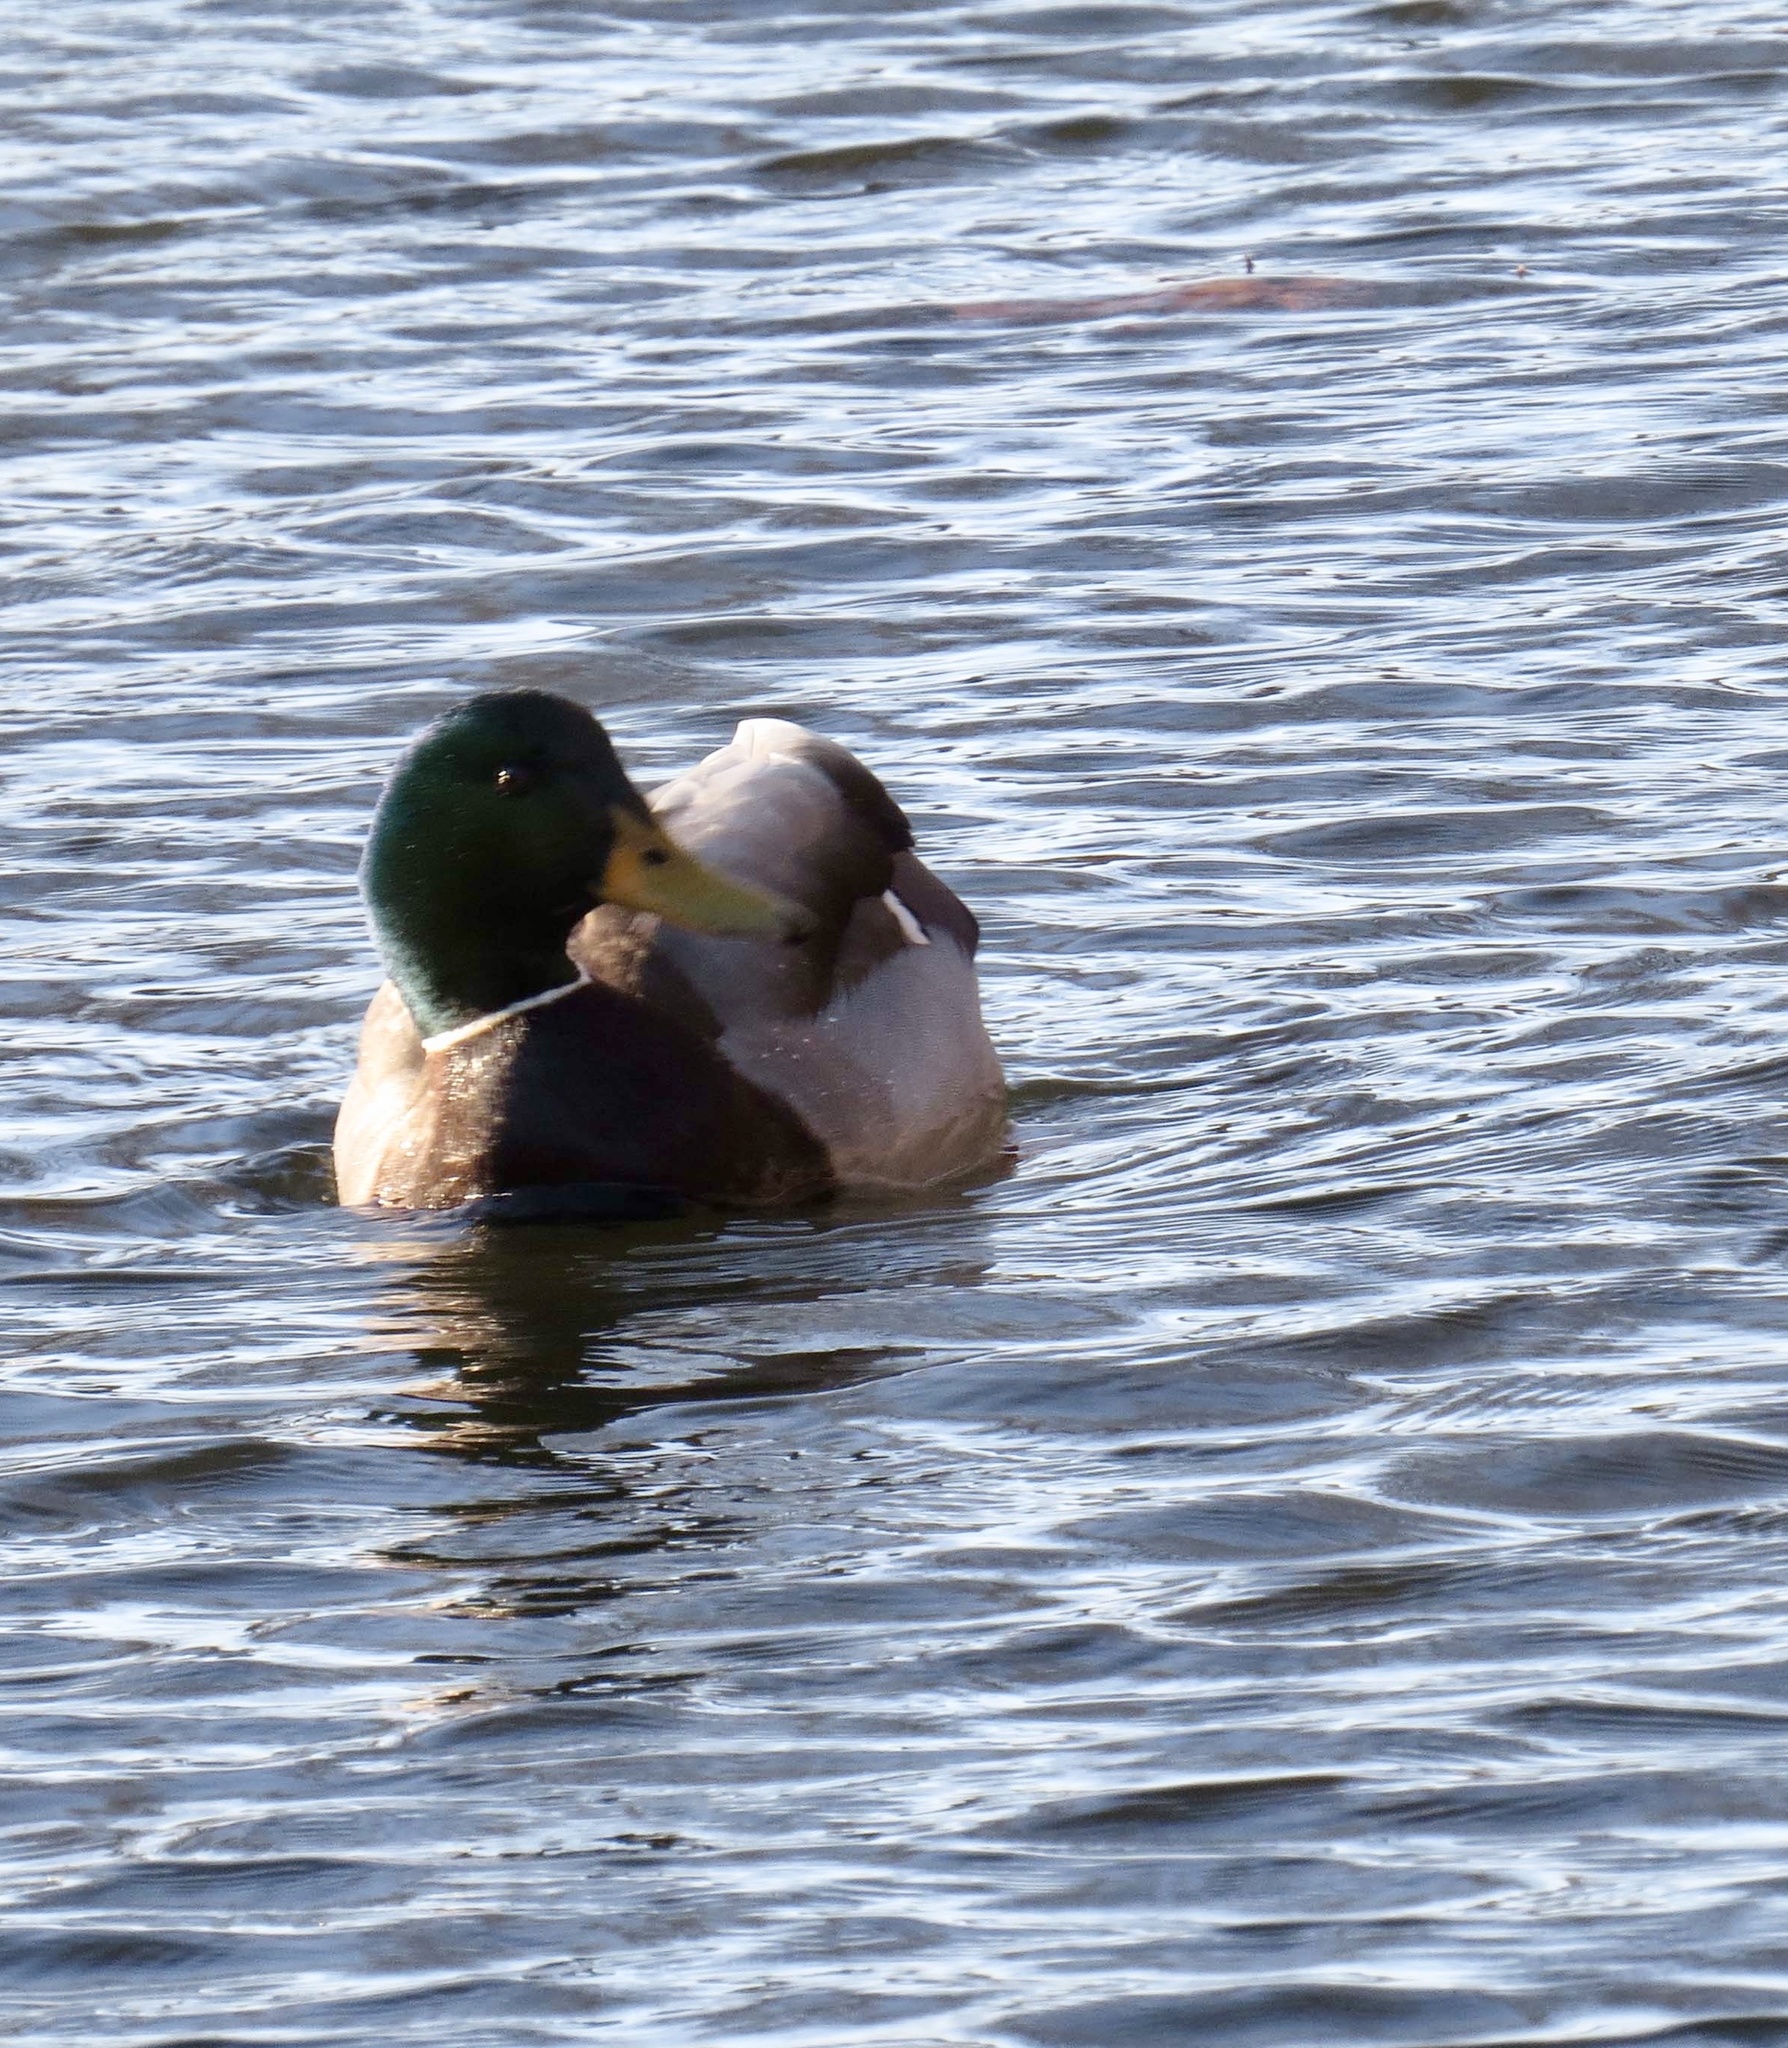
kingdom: Animalia
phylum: Chordata
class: Aves
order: Anseriformes
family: Anatidae
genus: Anas
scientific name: Anas platyrhynchos
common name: Mallard
